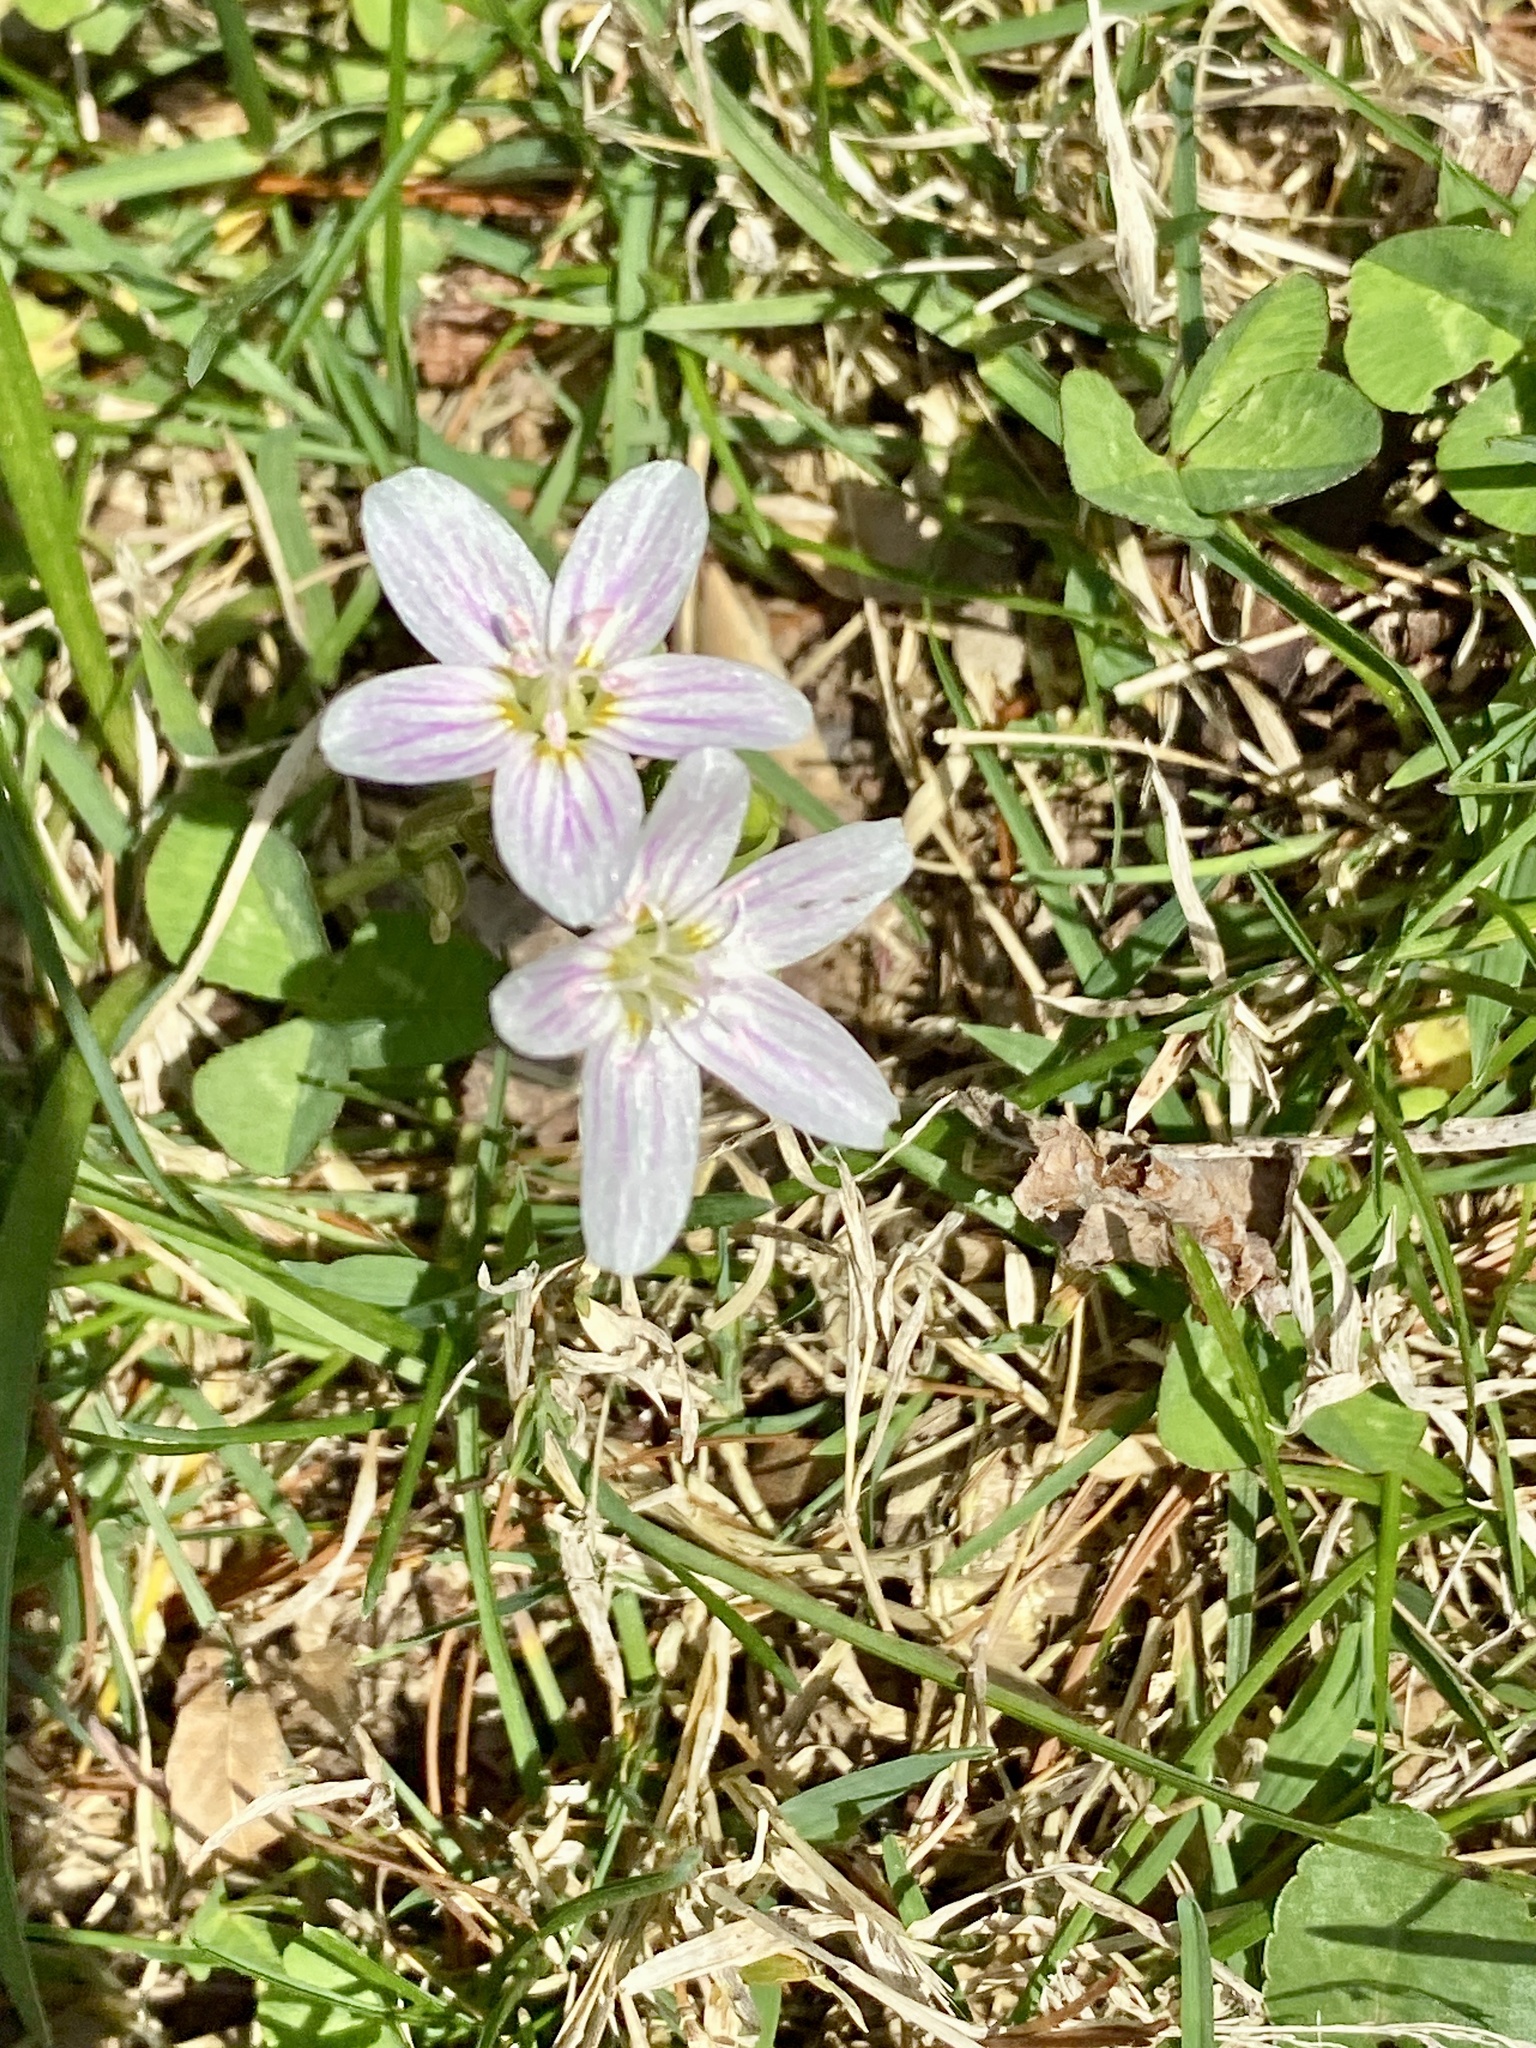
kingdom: Plantae
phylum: Tracheophyta
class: Magnoliopsida
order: Caryophyllales
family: Montiaceae
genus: Claytonia
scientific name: Claytonia virginica
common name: Virginia springbeauty
